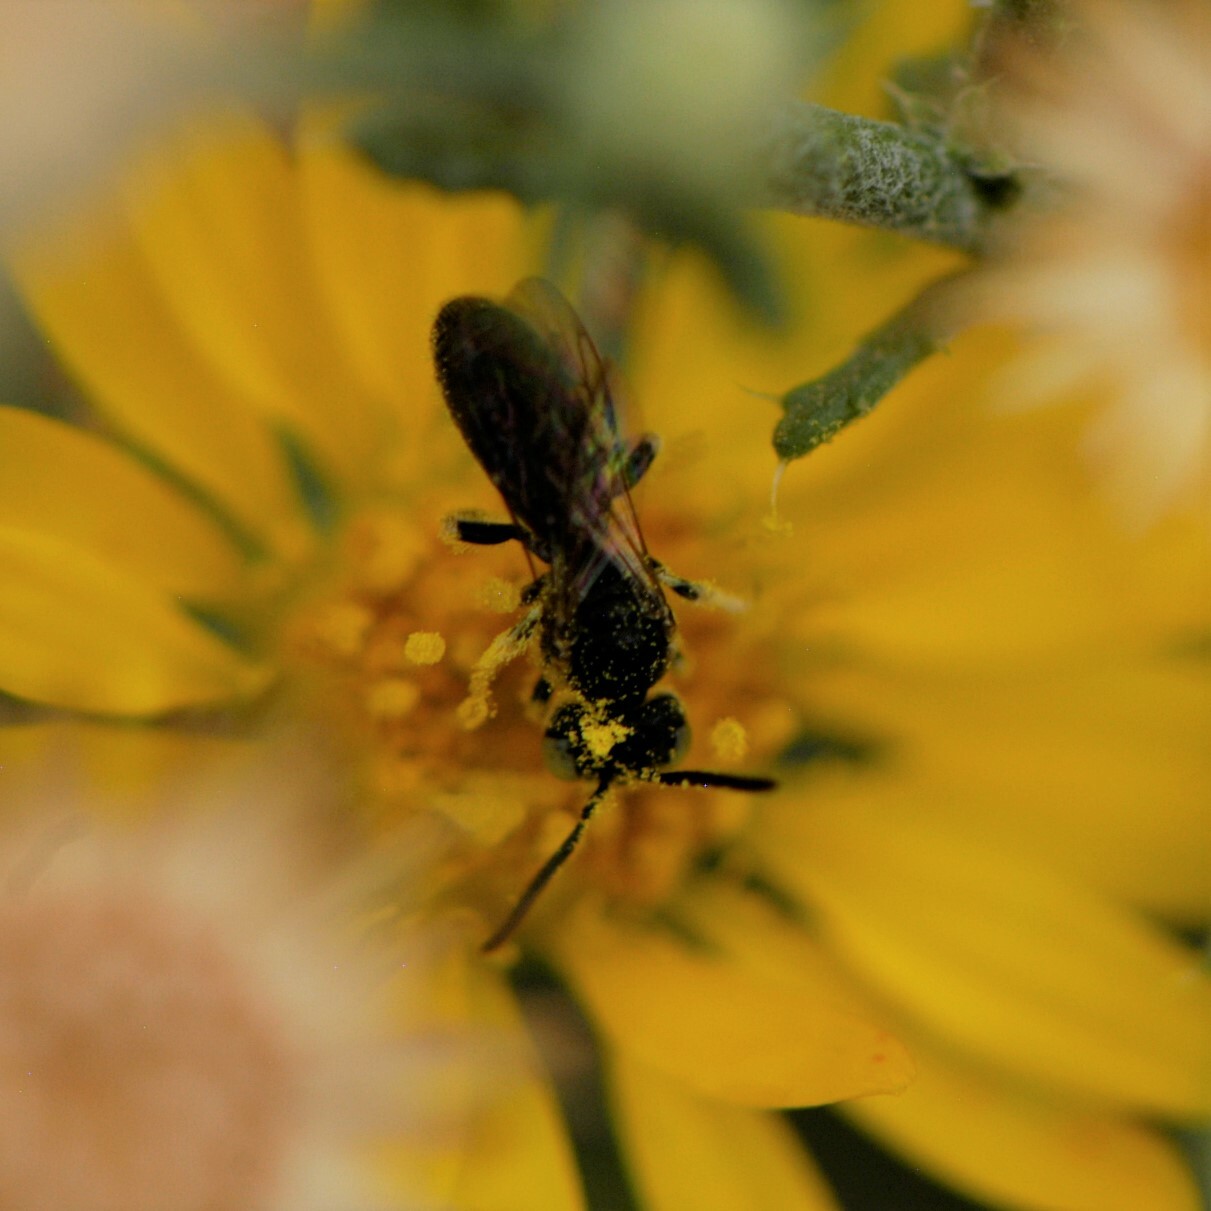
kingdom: Animalia
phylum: Arthropoda
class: Insecta
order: Hymenoptera
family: Andrenidae
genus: Pterosarus
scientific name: Pterosarus
